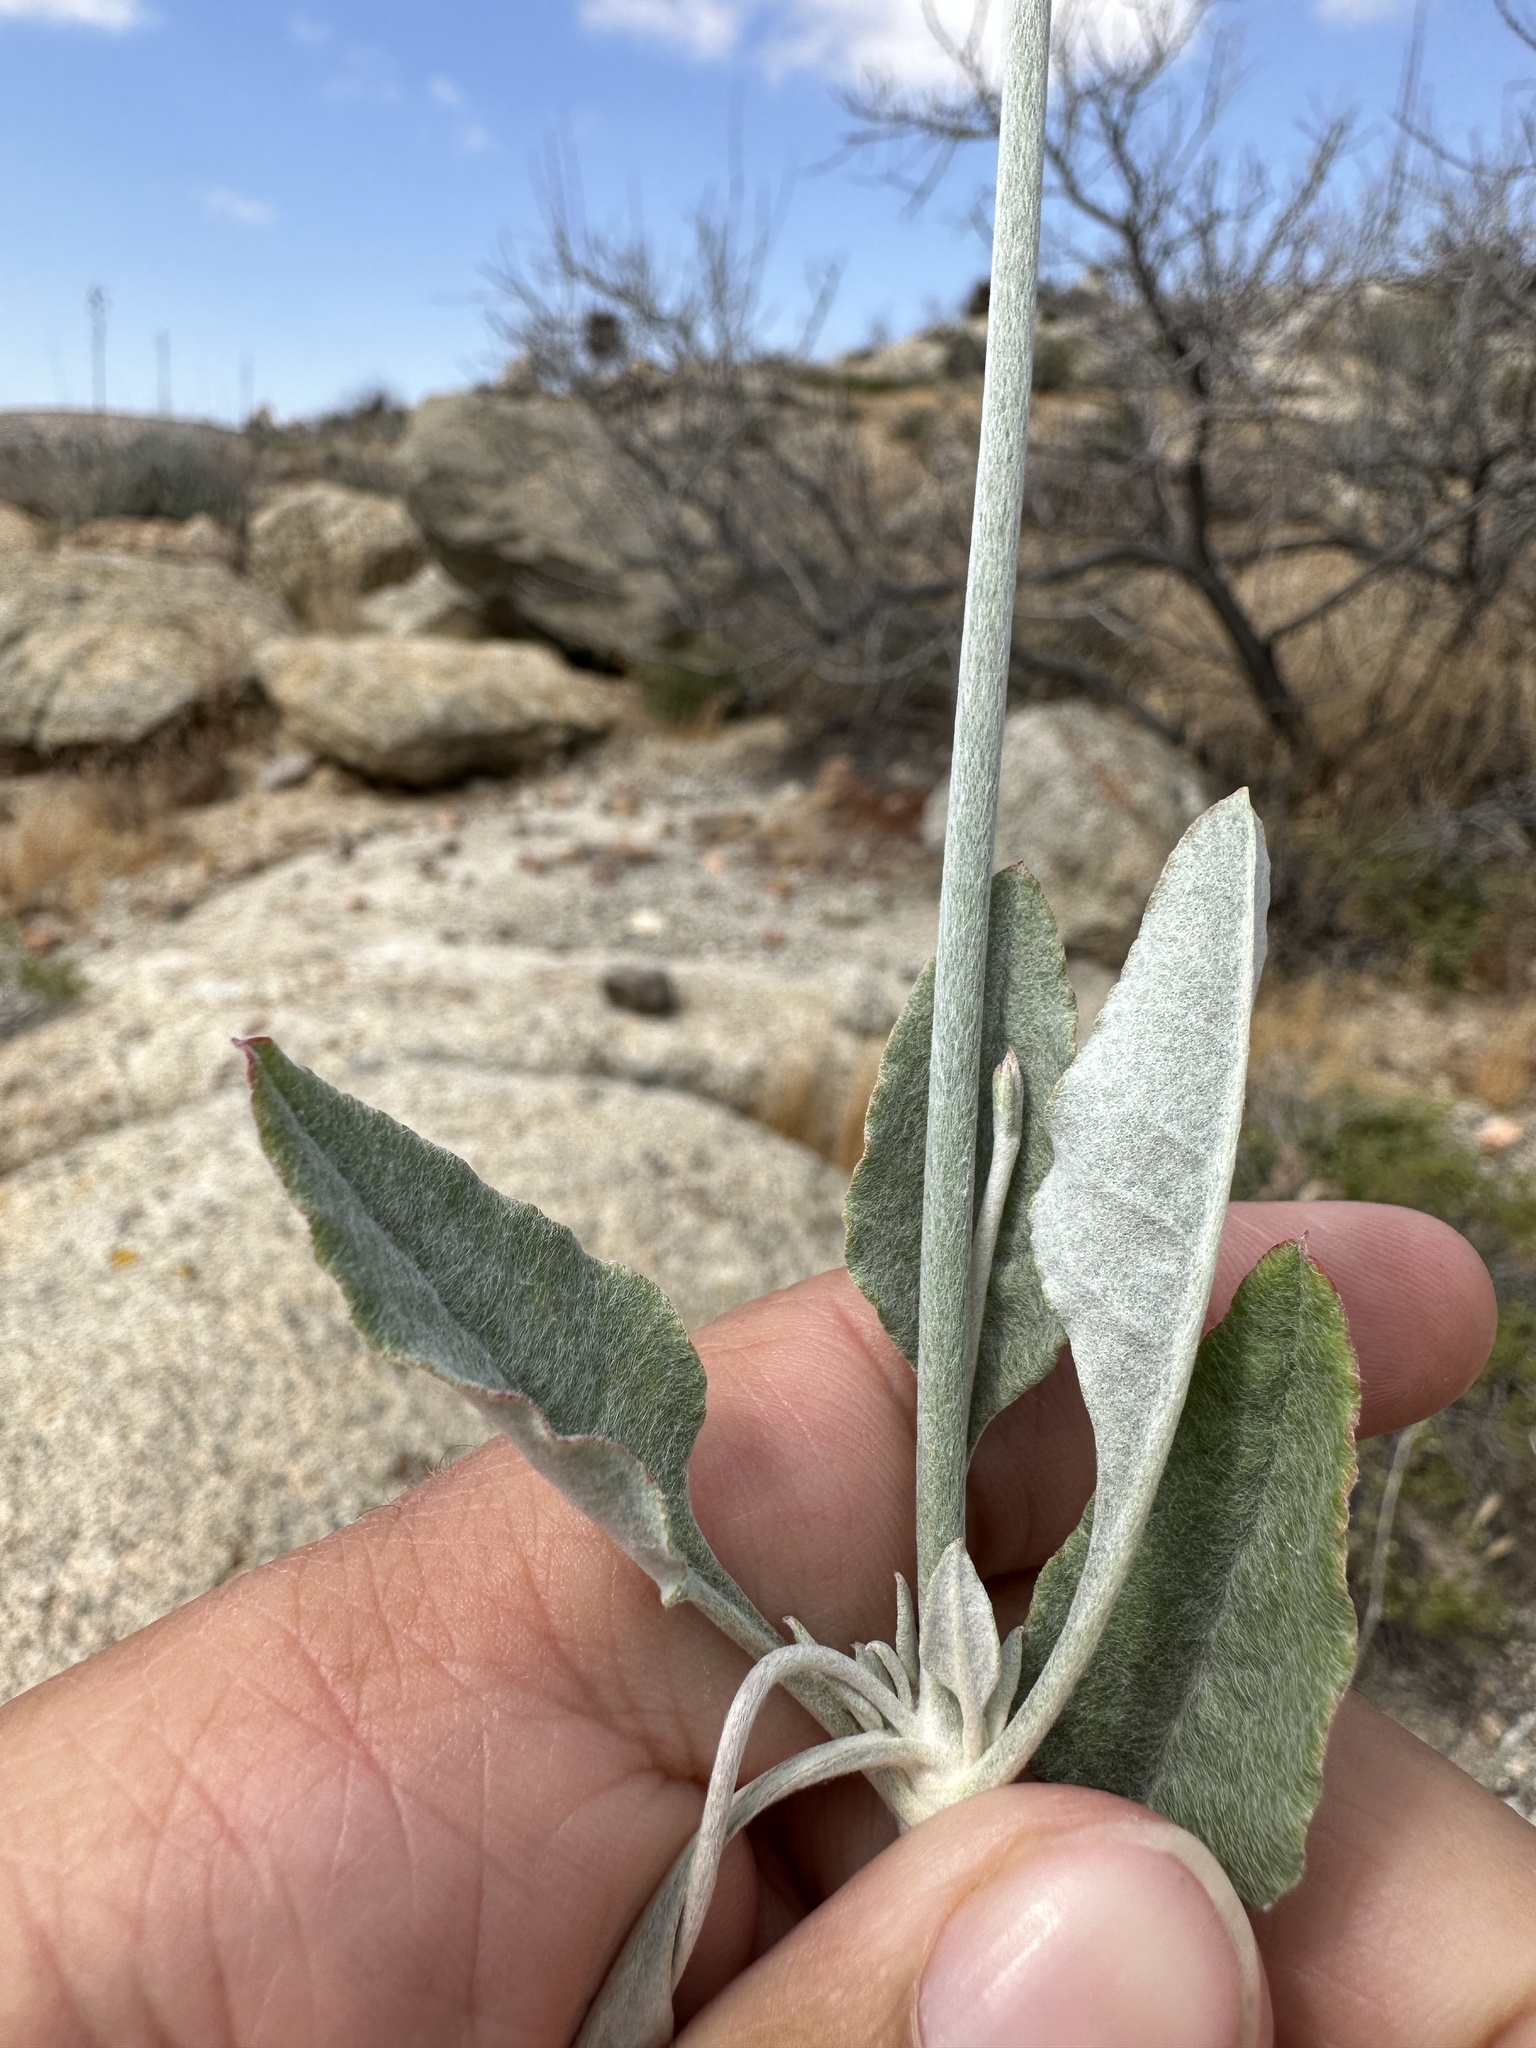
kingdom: Plantae
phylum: Tracheophyta
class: Magnoliopsida
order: Caryophyllales
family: Polygonaceae
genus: Eriogonum
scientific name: Eriogonum elongatum
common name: Long-stem wild buckwheat
